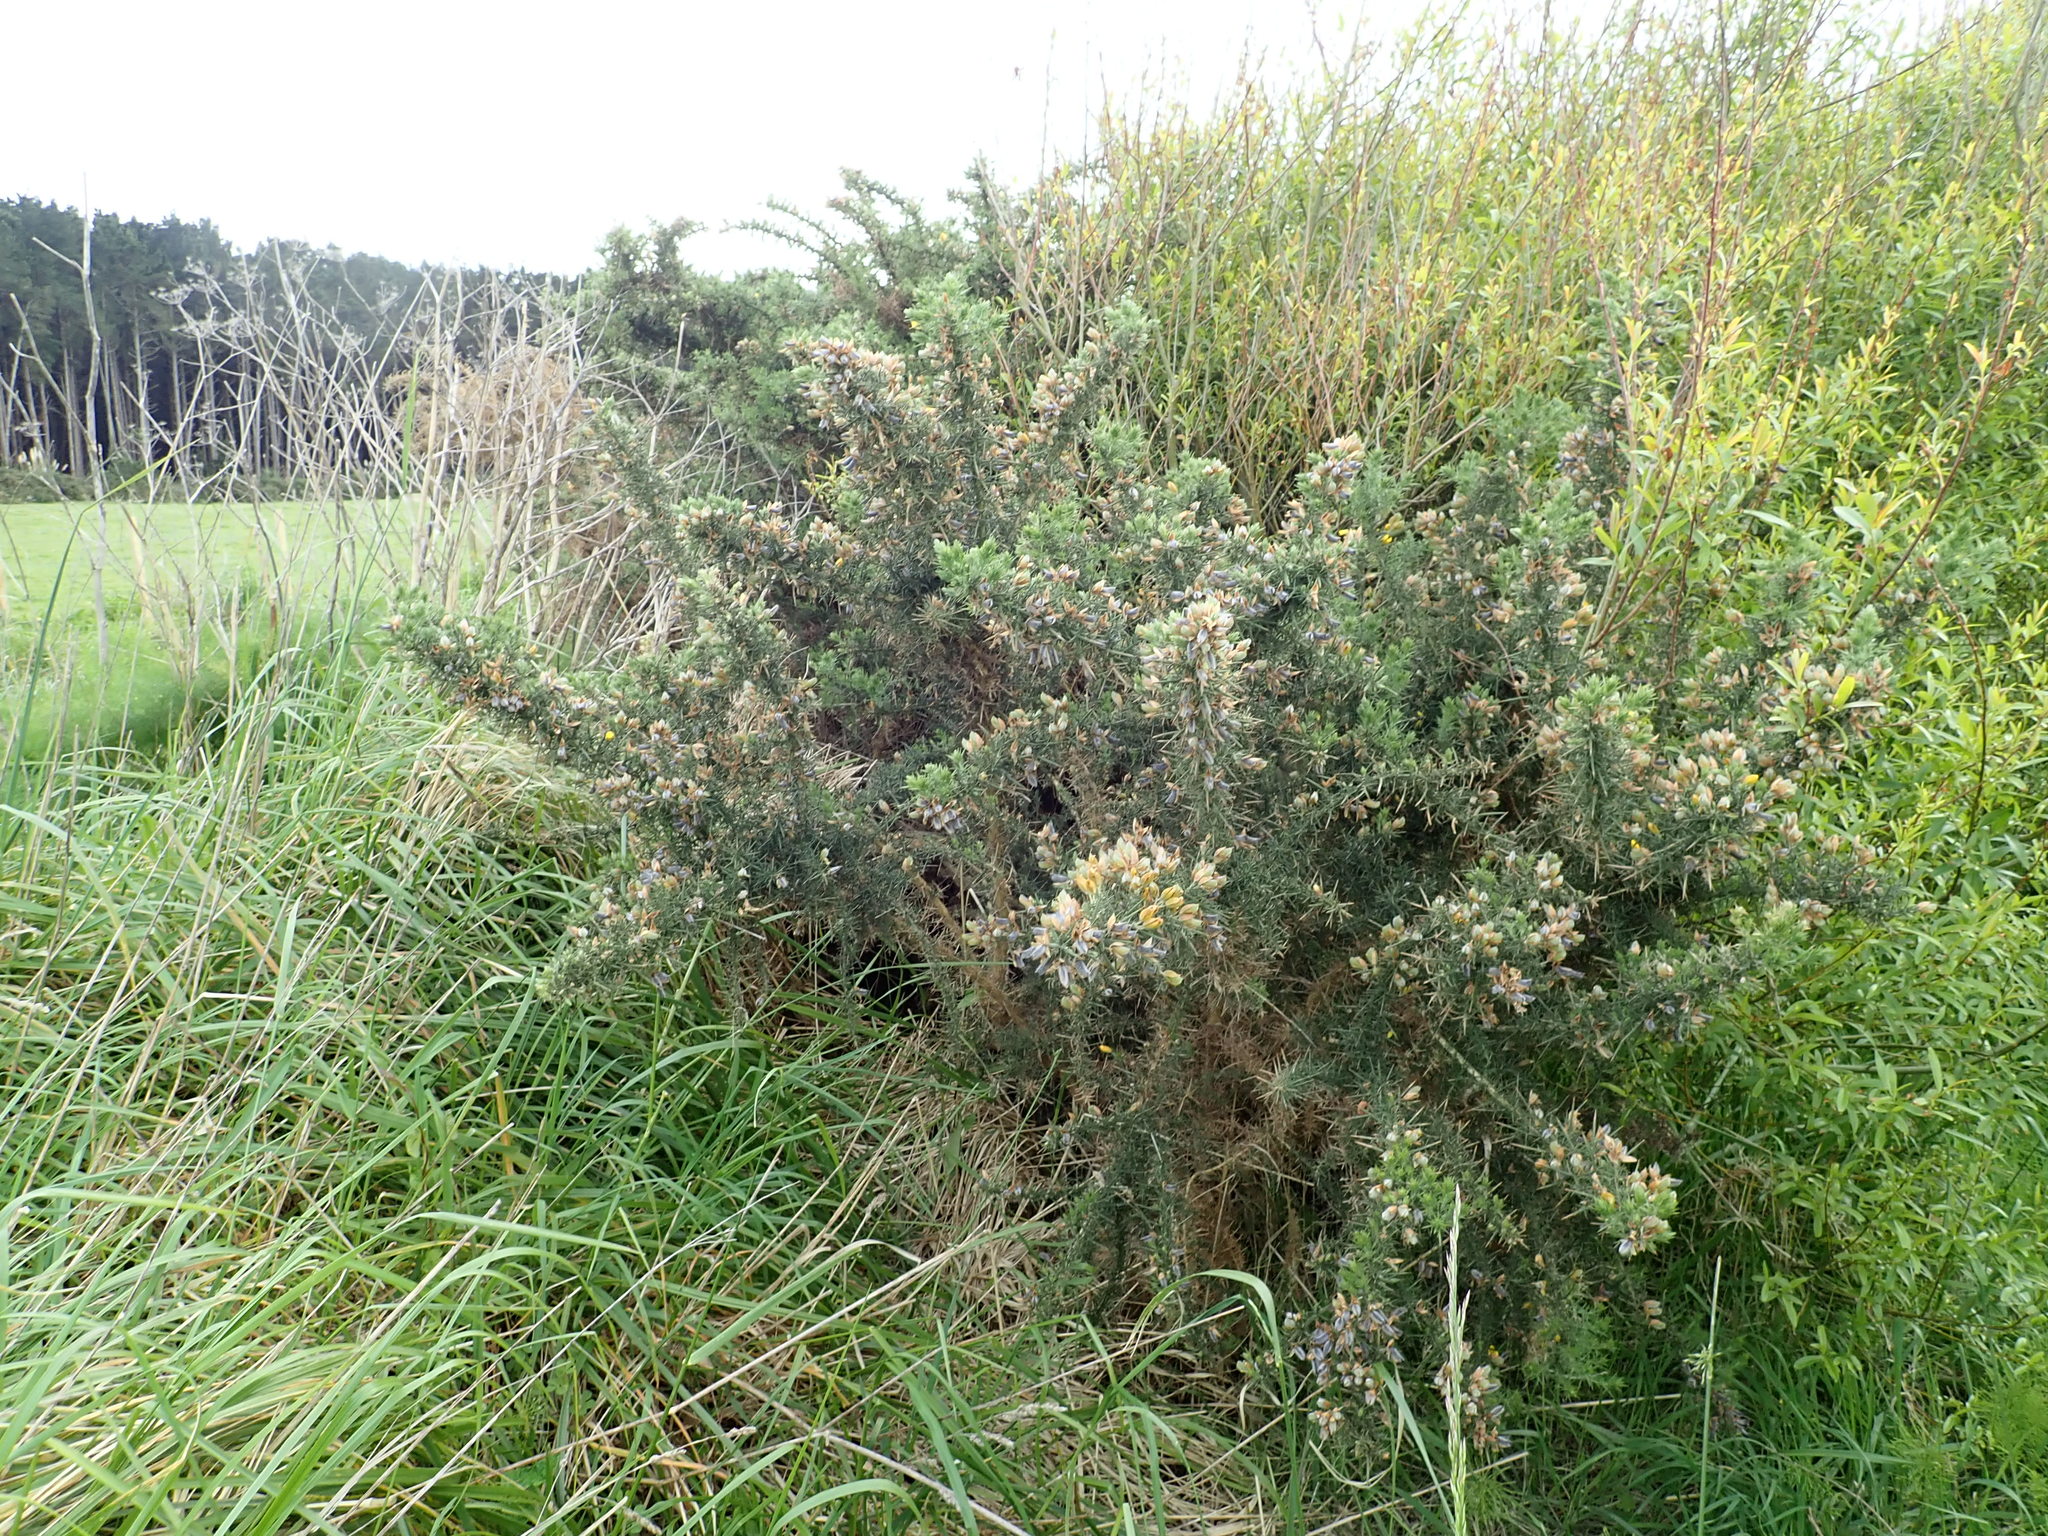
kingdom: Plantae
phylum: Tracheophyta
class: Magnoliopsida
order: Fabales
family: Fabaceae
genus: Ulex
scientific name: Ulex europaeus
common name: Common gorse
